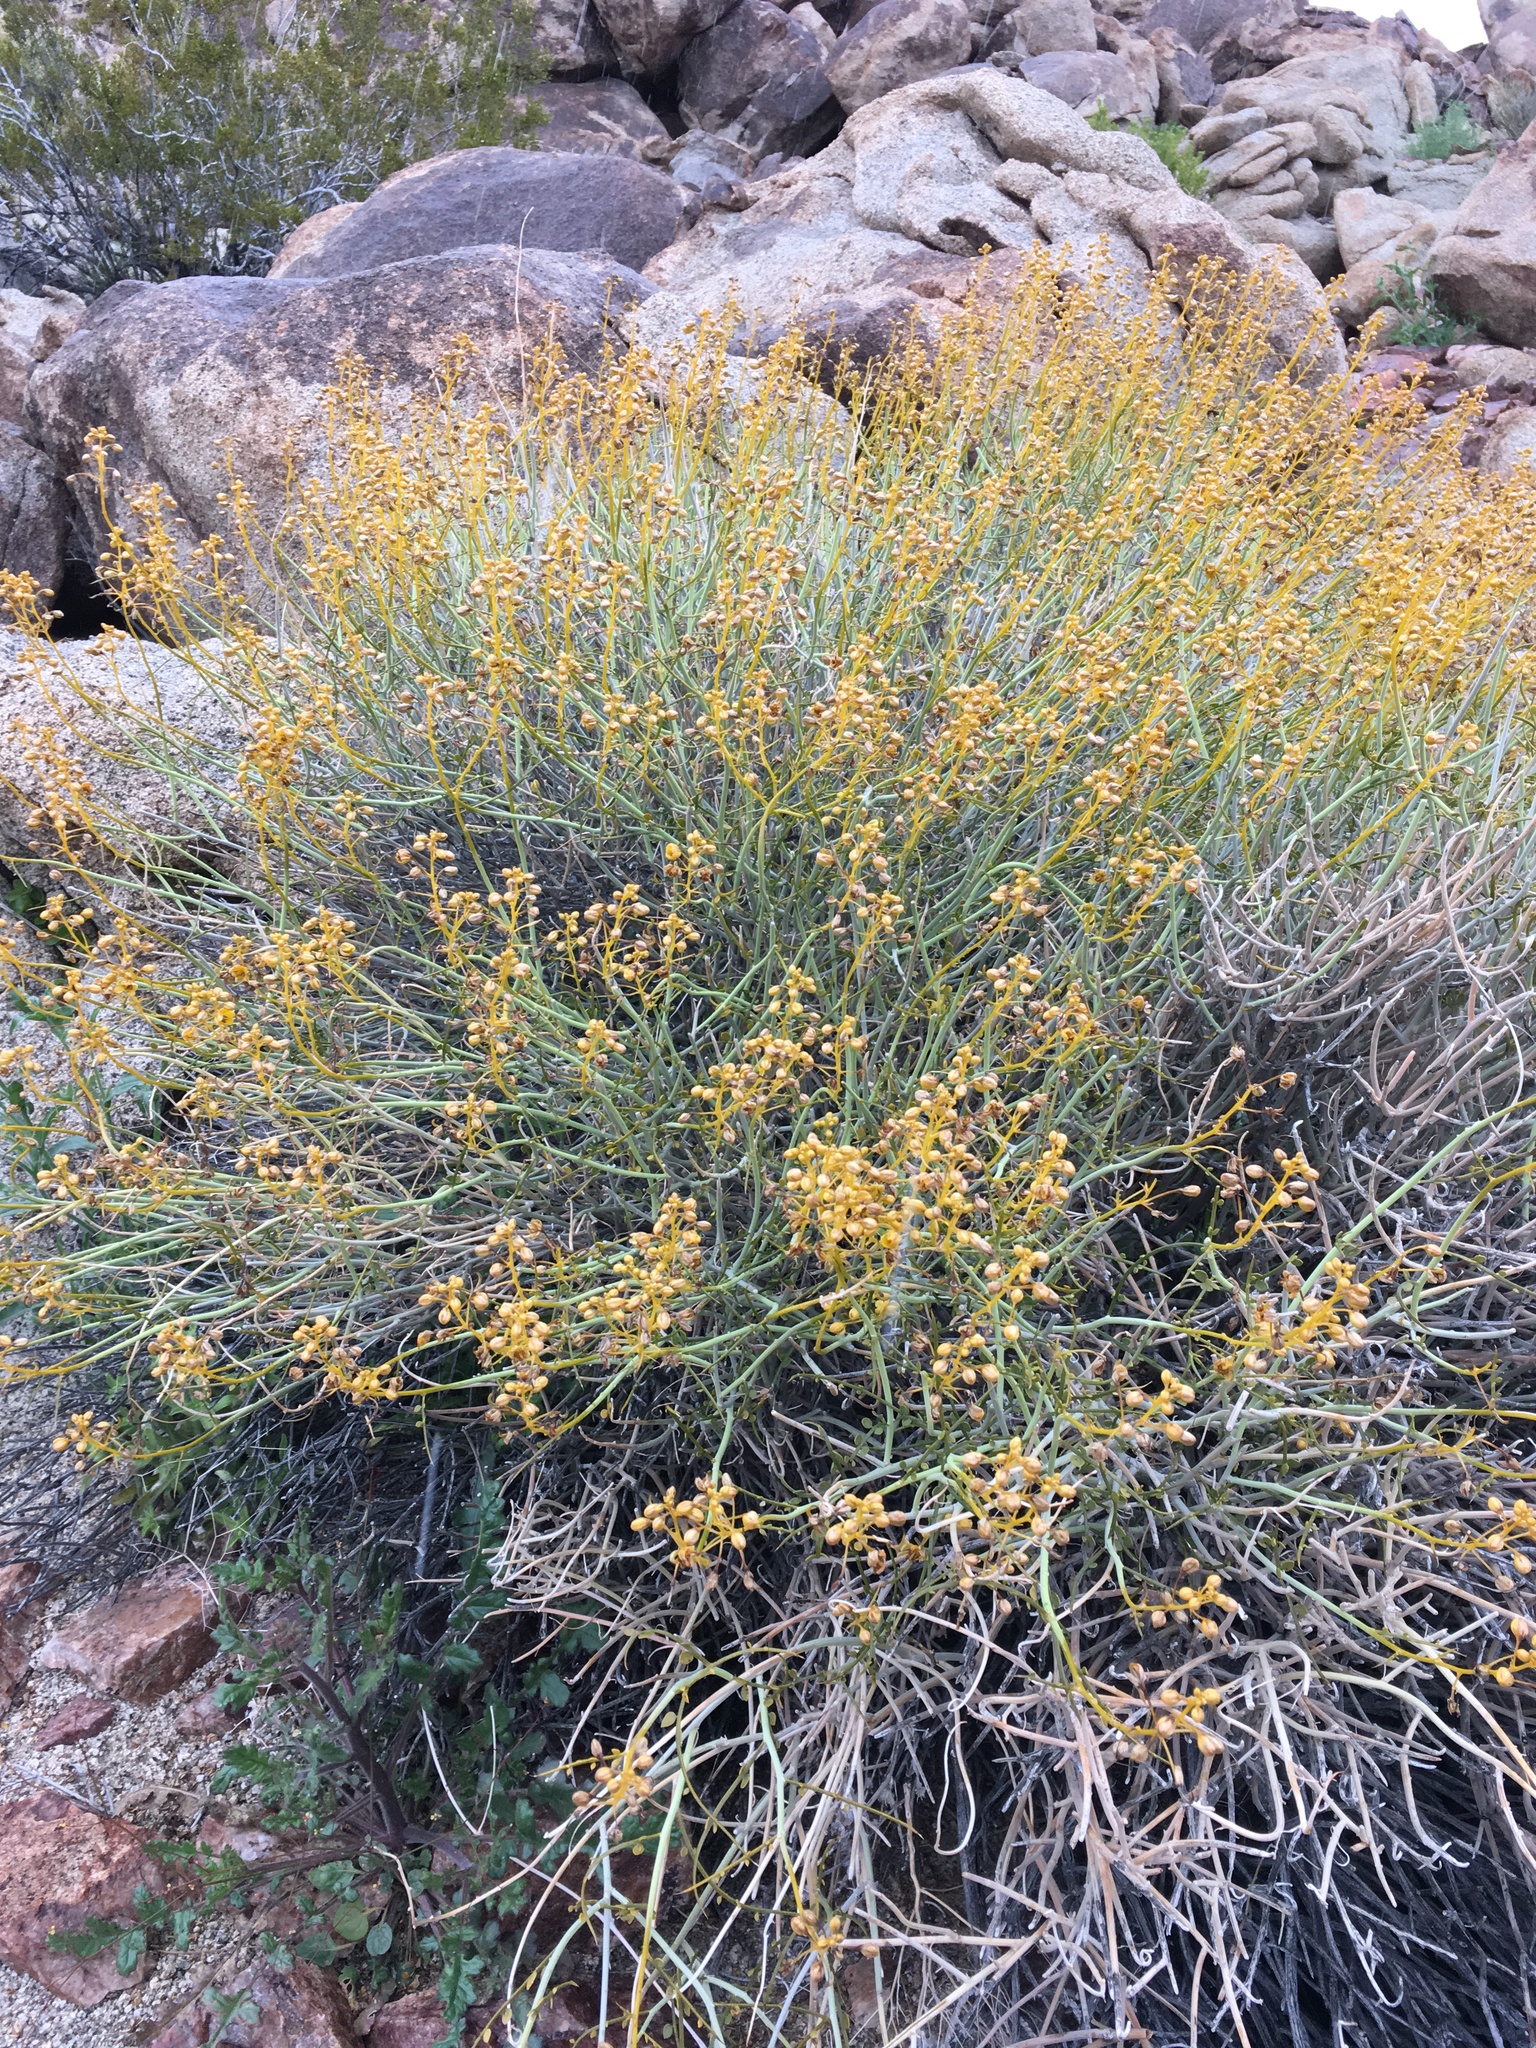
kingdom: Plantae
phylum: Tracheophyta
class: Magnoliopsida
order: Fabales
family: Fabaceae
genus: Senna
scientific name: Senna armata
